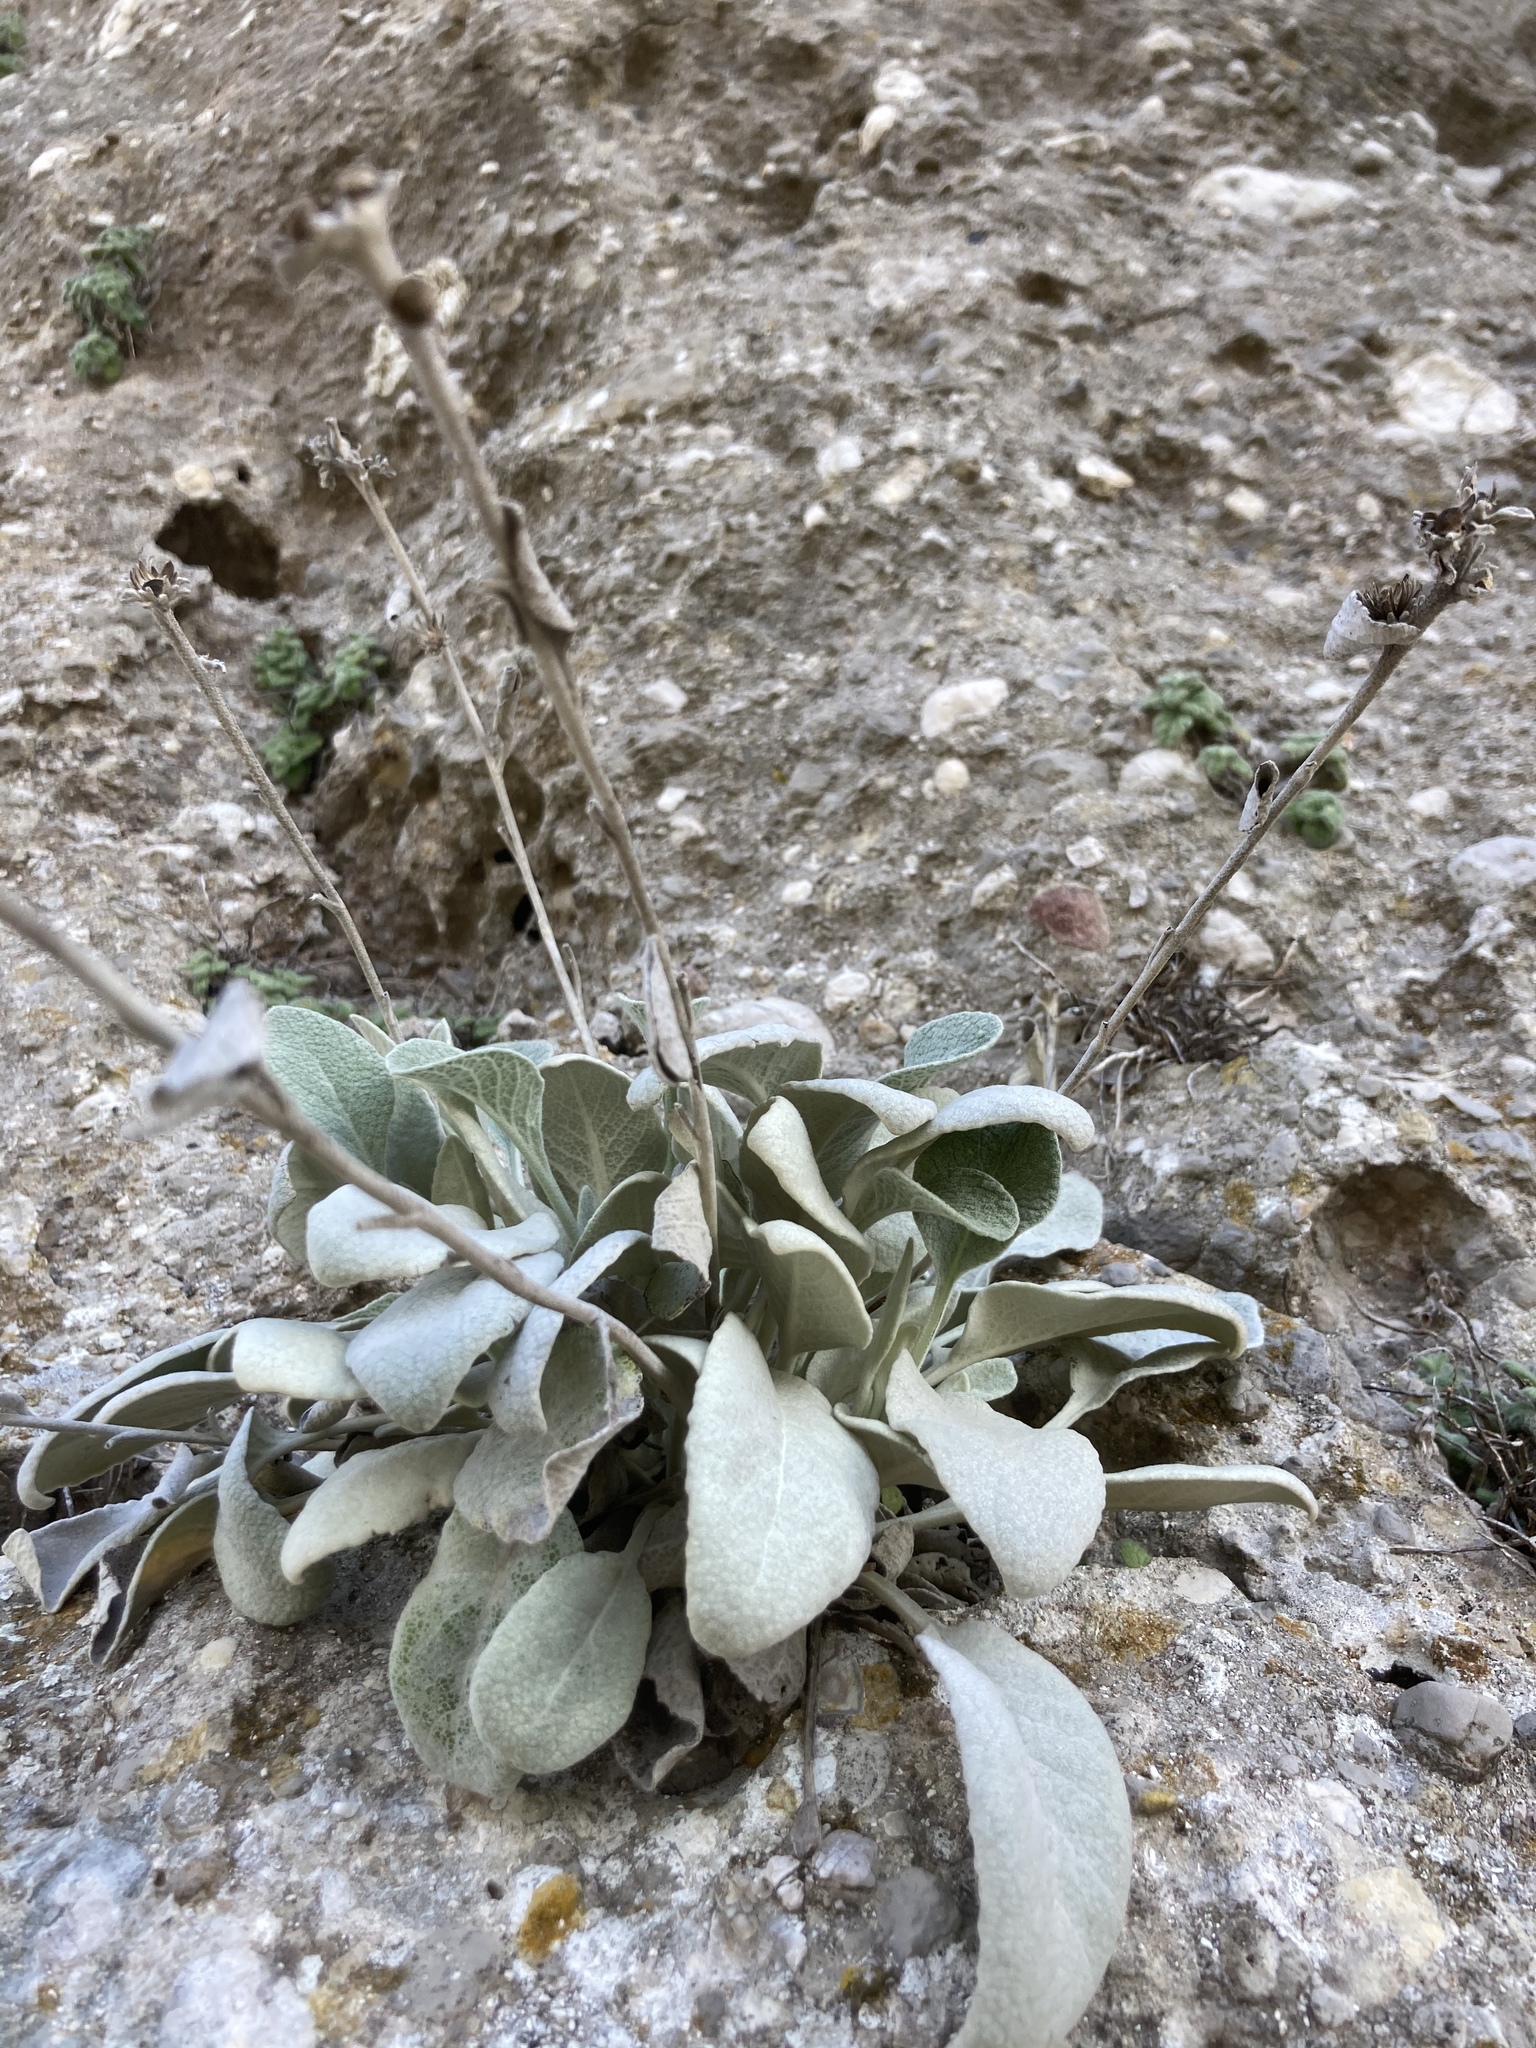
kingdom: Plantae
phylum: Tracheophyta
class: Magnoliopsida
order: Asterales
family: Asteraceae
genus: Pentanema
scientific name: Pentanema verbascifolium
